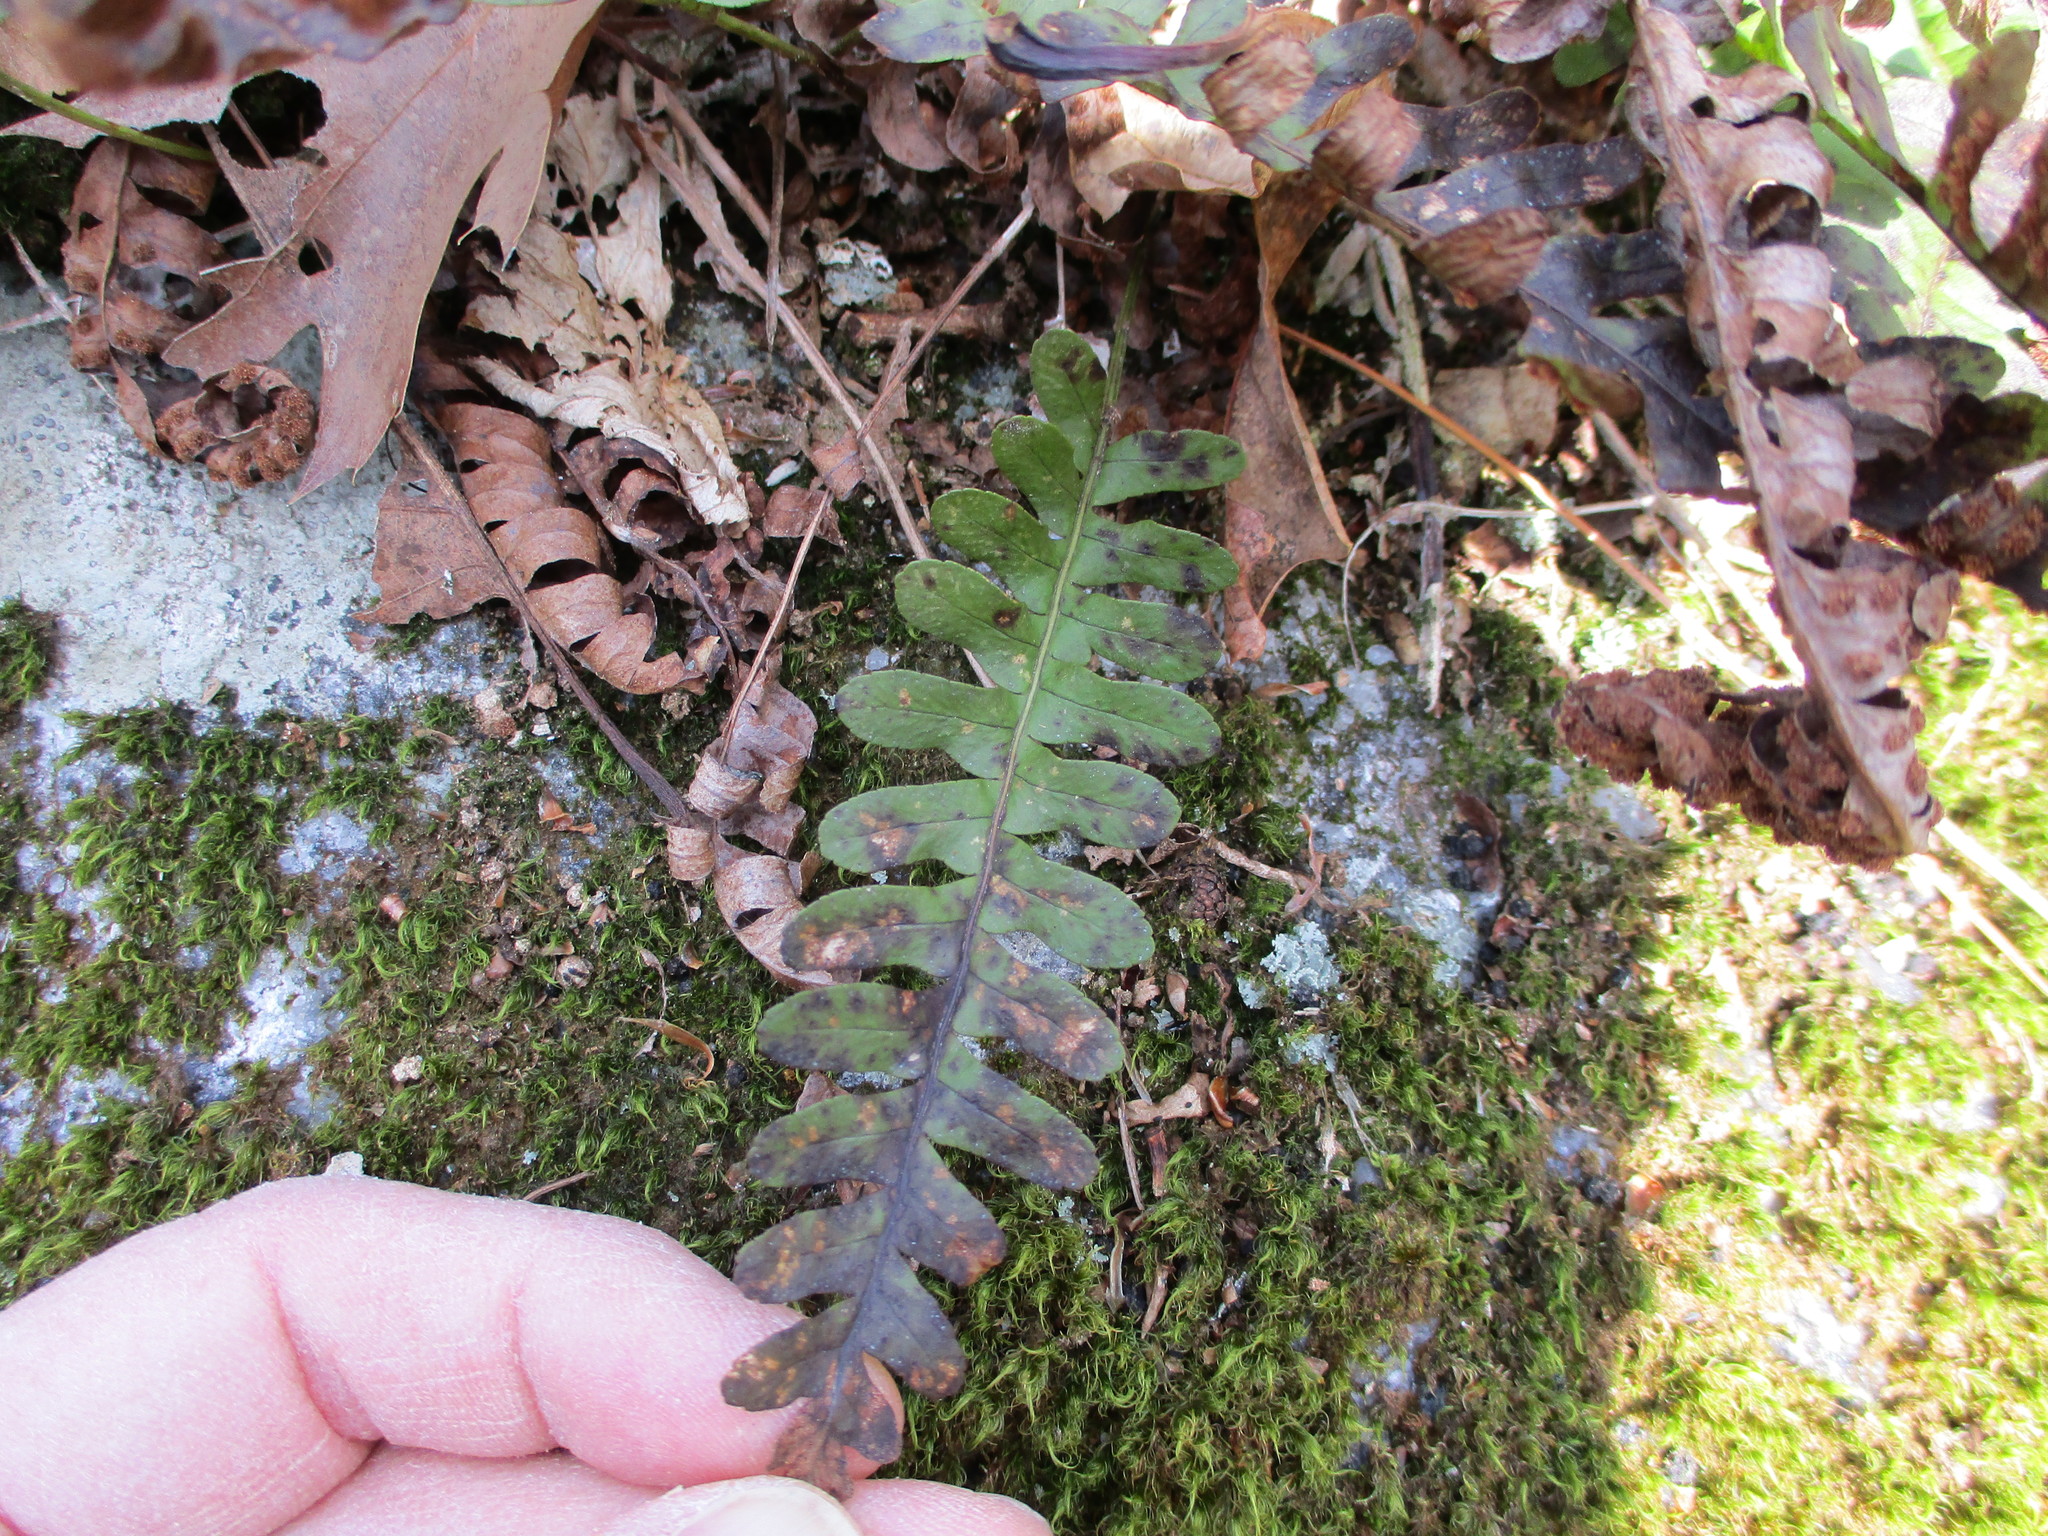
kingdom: Plantae
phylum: Tracheophyta
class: Polypodiopsida
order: Polypodiales
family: Polypodiaceae
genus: Polypodium
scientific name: Polypodium virginianum
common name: American wall fern
